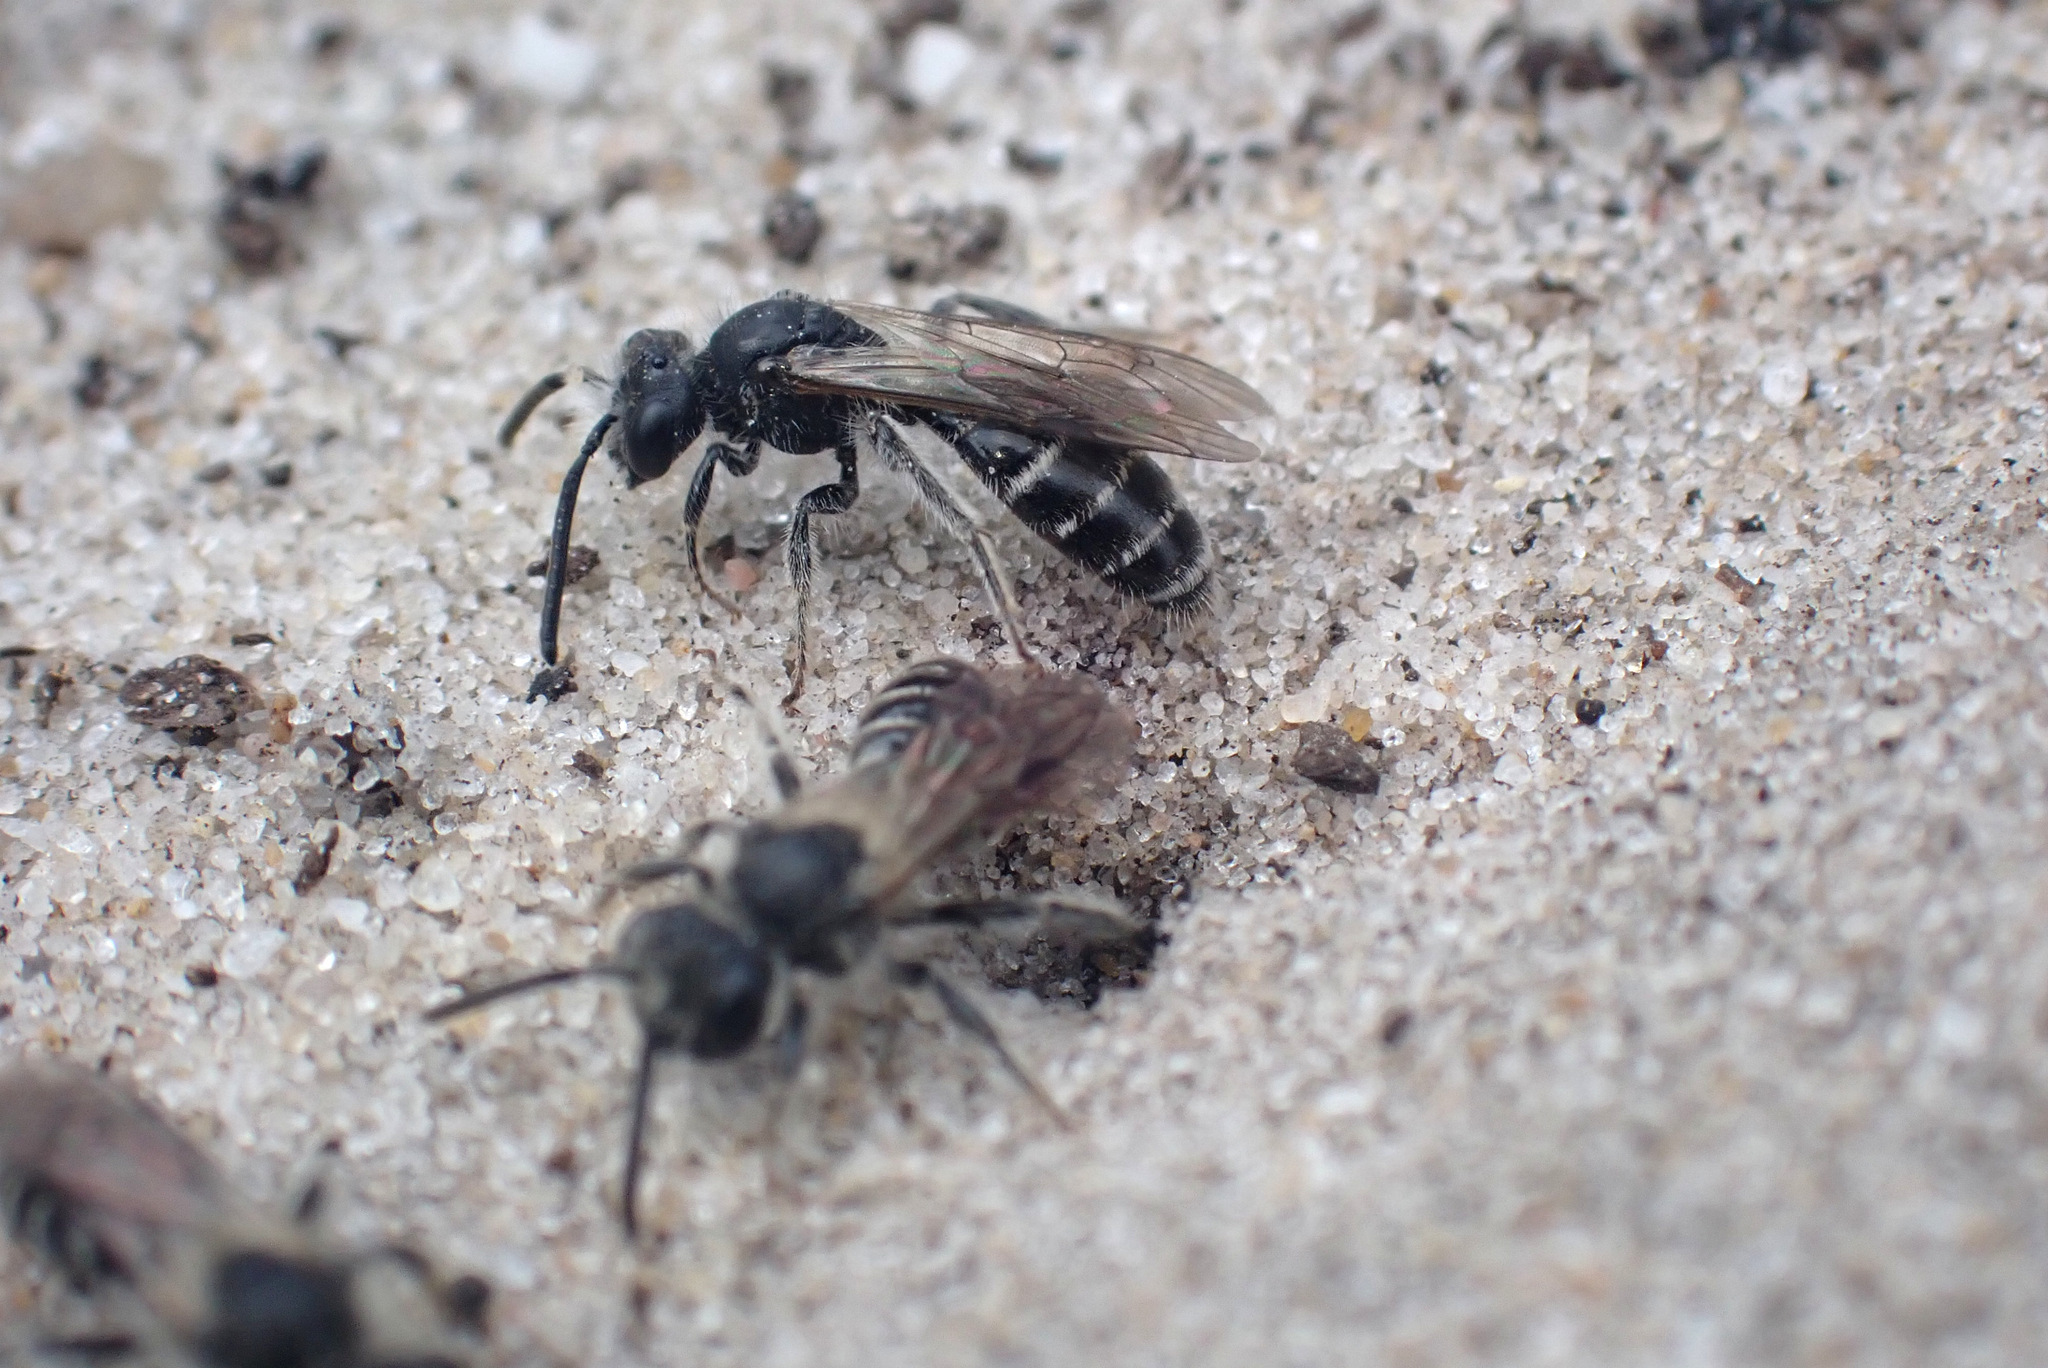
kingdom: Animalia
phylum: Arthropoda
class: Insecta
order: Hymenoptera
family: Andrenidae
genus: Andrena
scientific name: Andrena argentata
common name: Small sandpit mining bee
